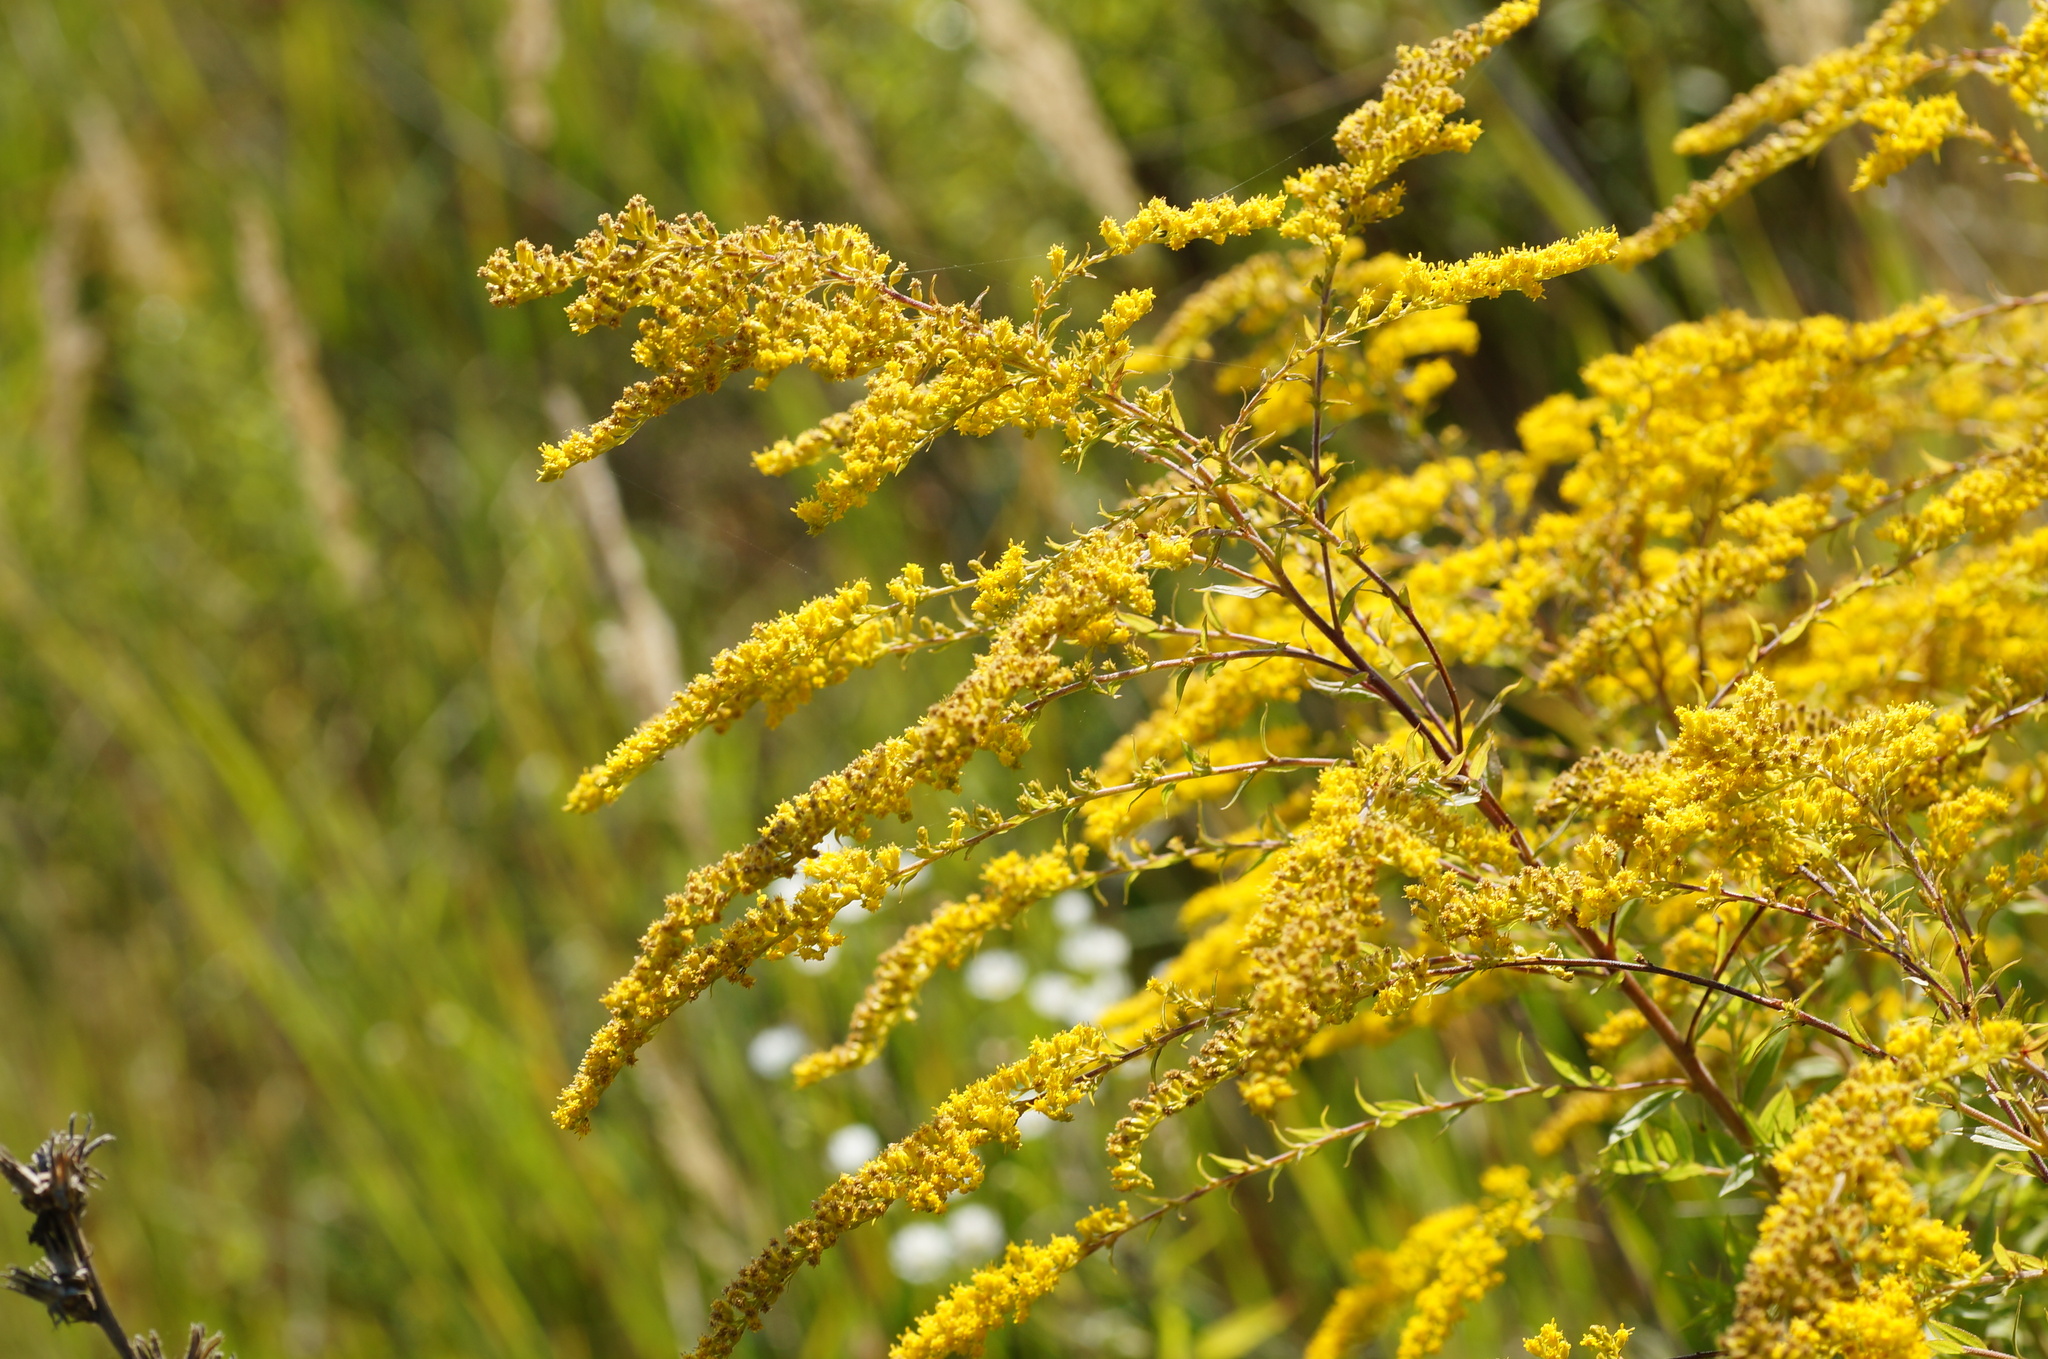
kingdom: Plantae
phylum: Tracheophyta
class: Magnoliopsida
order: Asterales
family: Asteraceae
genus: Solidago
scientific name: Solidago canadensis
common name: Canada goldenrod
